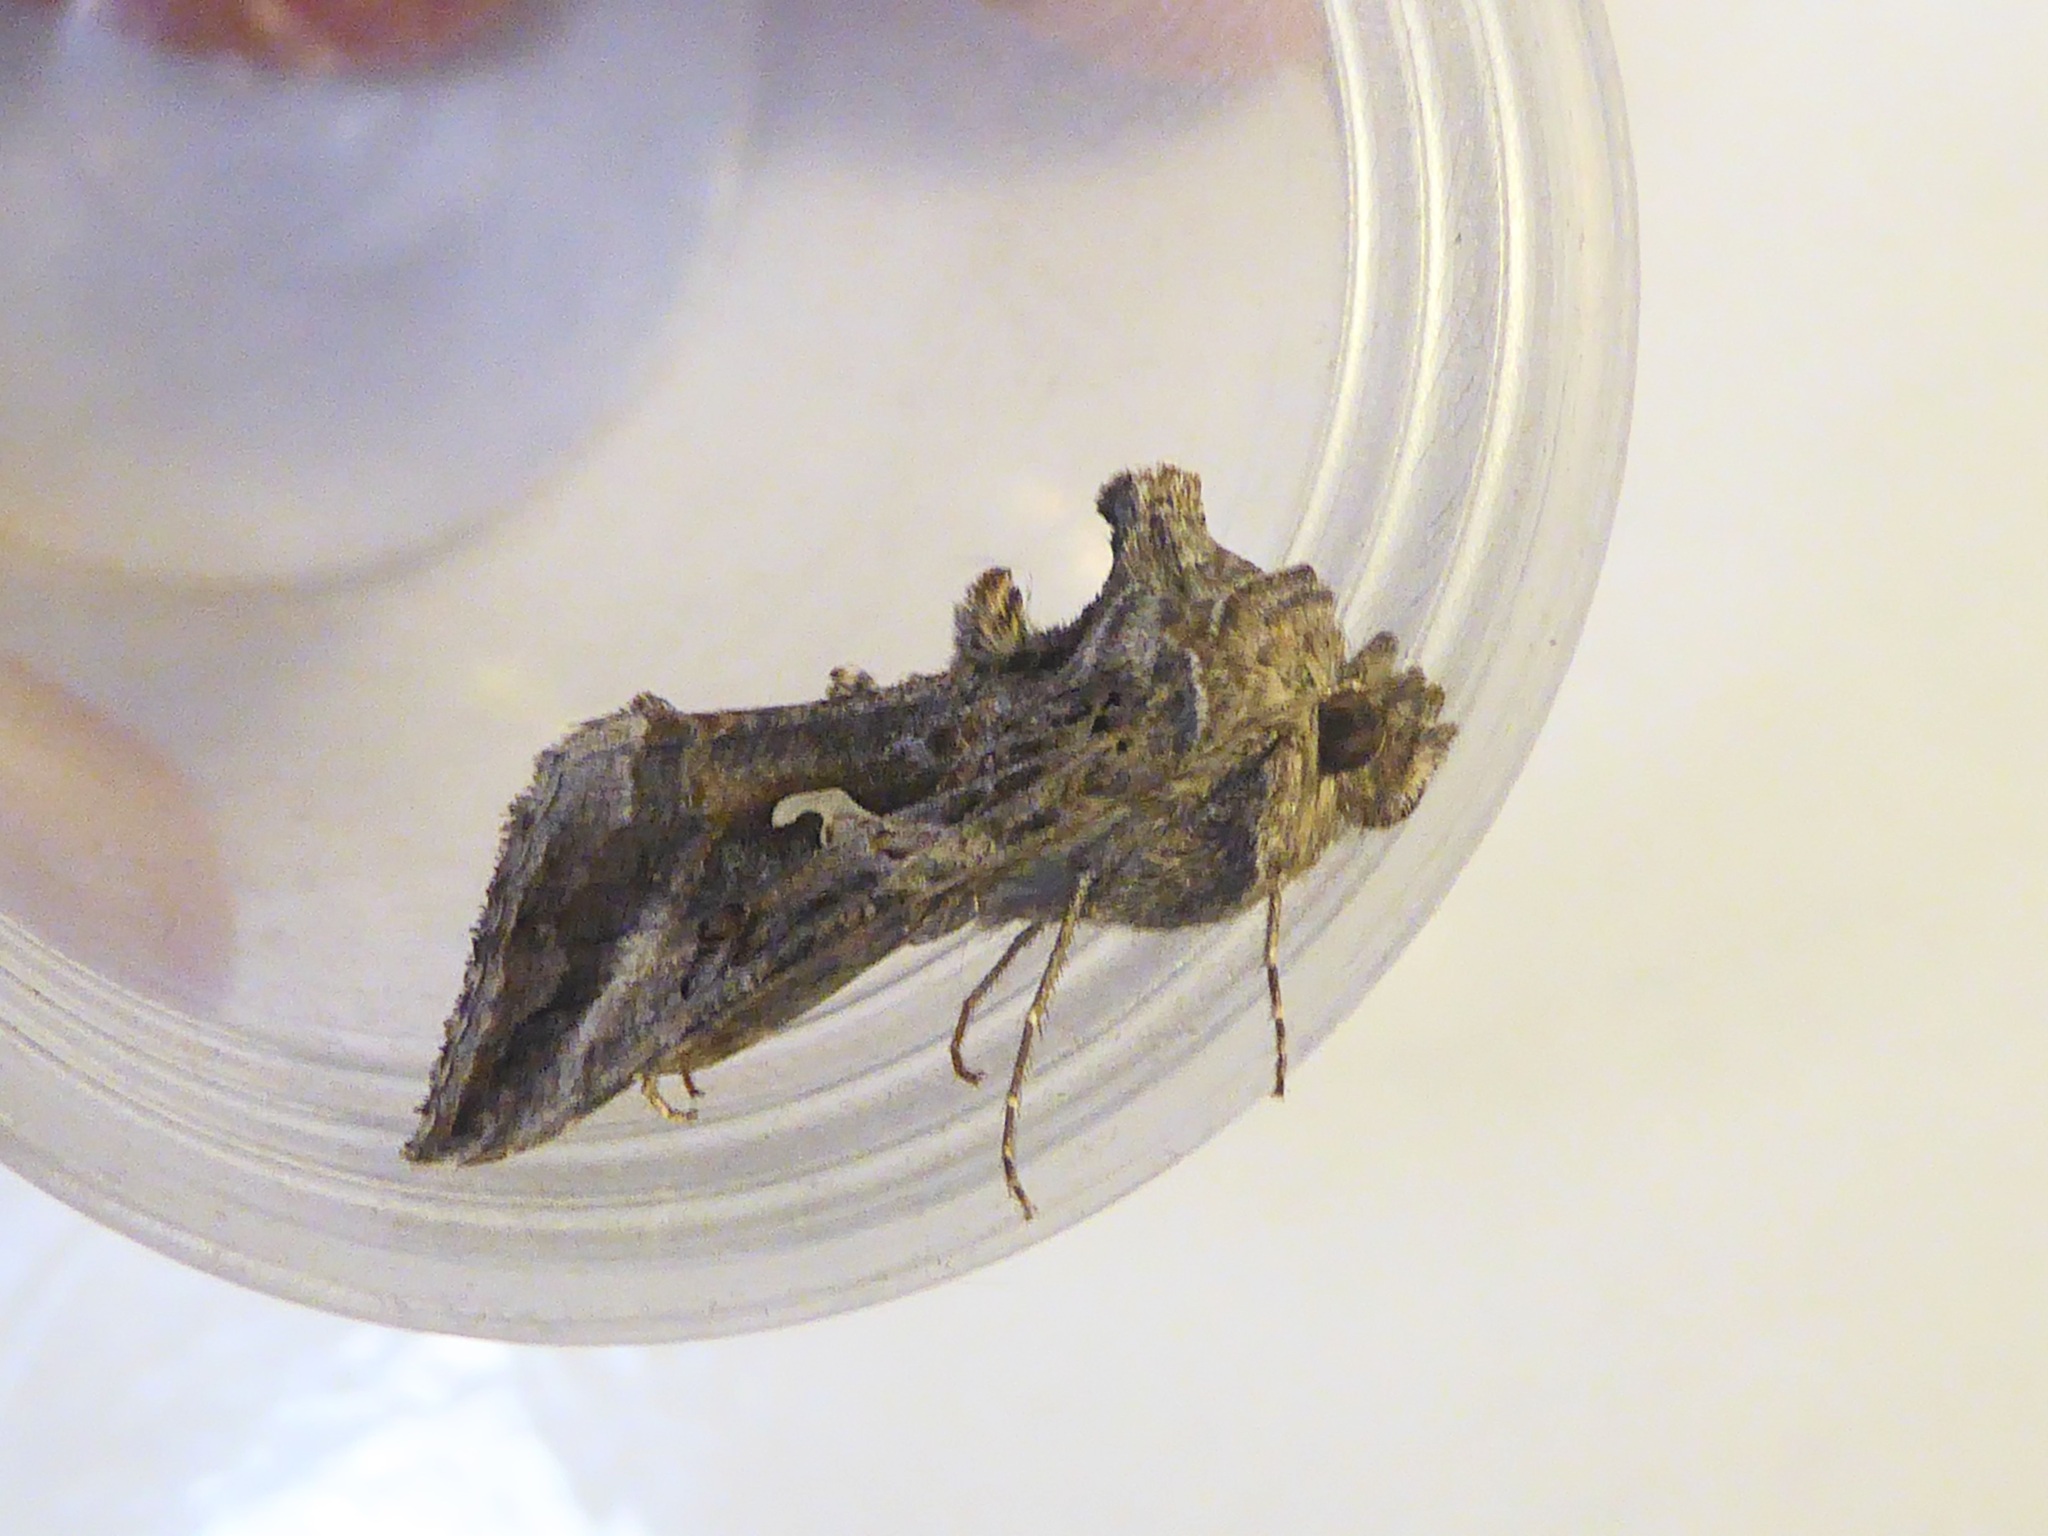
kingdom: Animalia
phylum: Arthropoda
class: Insecta
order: Lepidoptera
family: Noctuidae
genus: Autographa
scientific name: Autographa gamma
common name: Silver y
